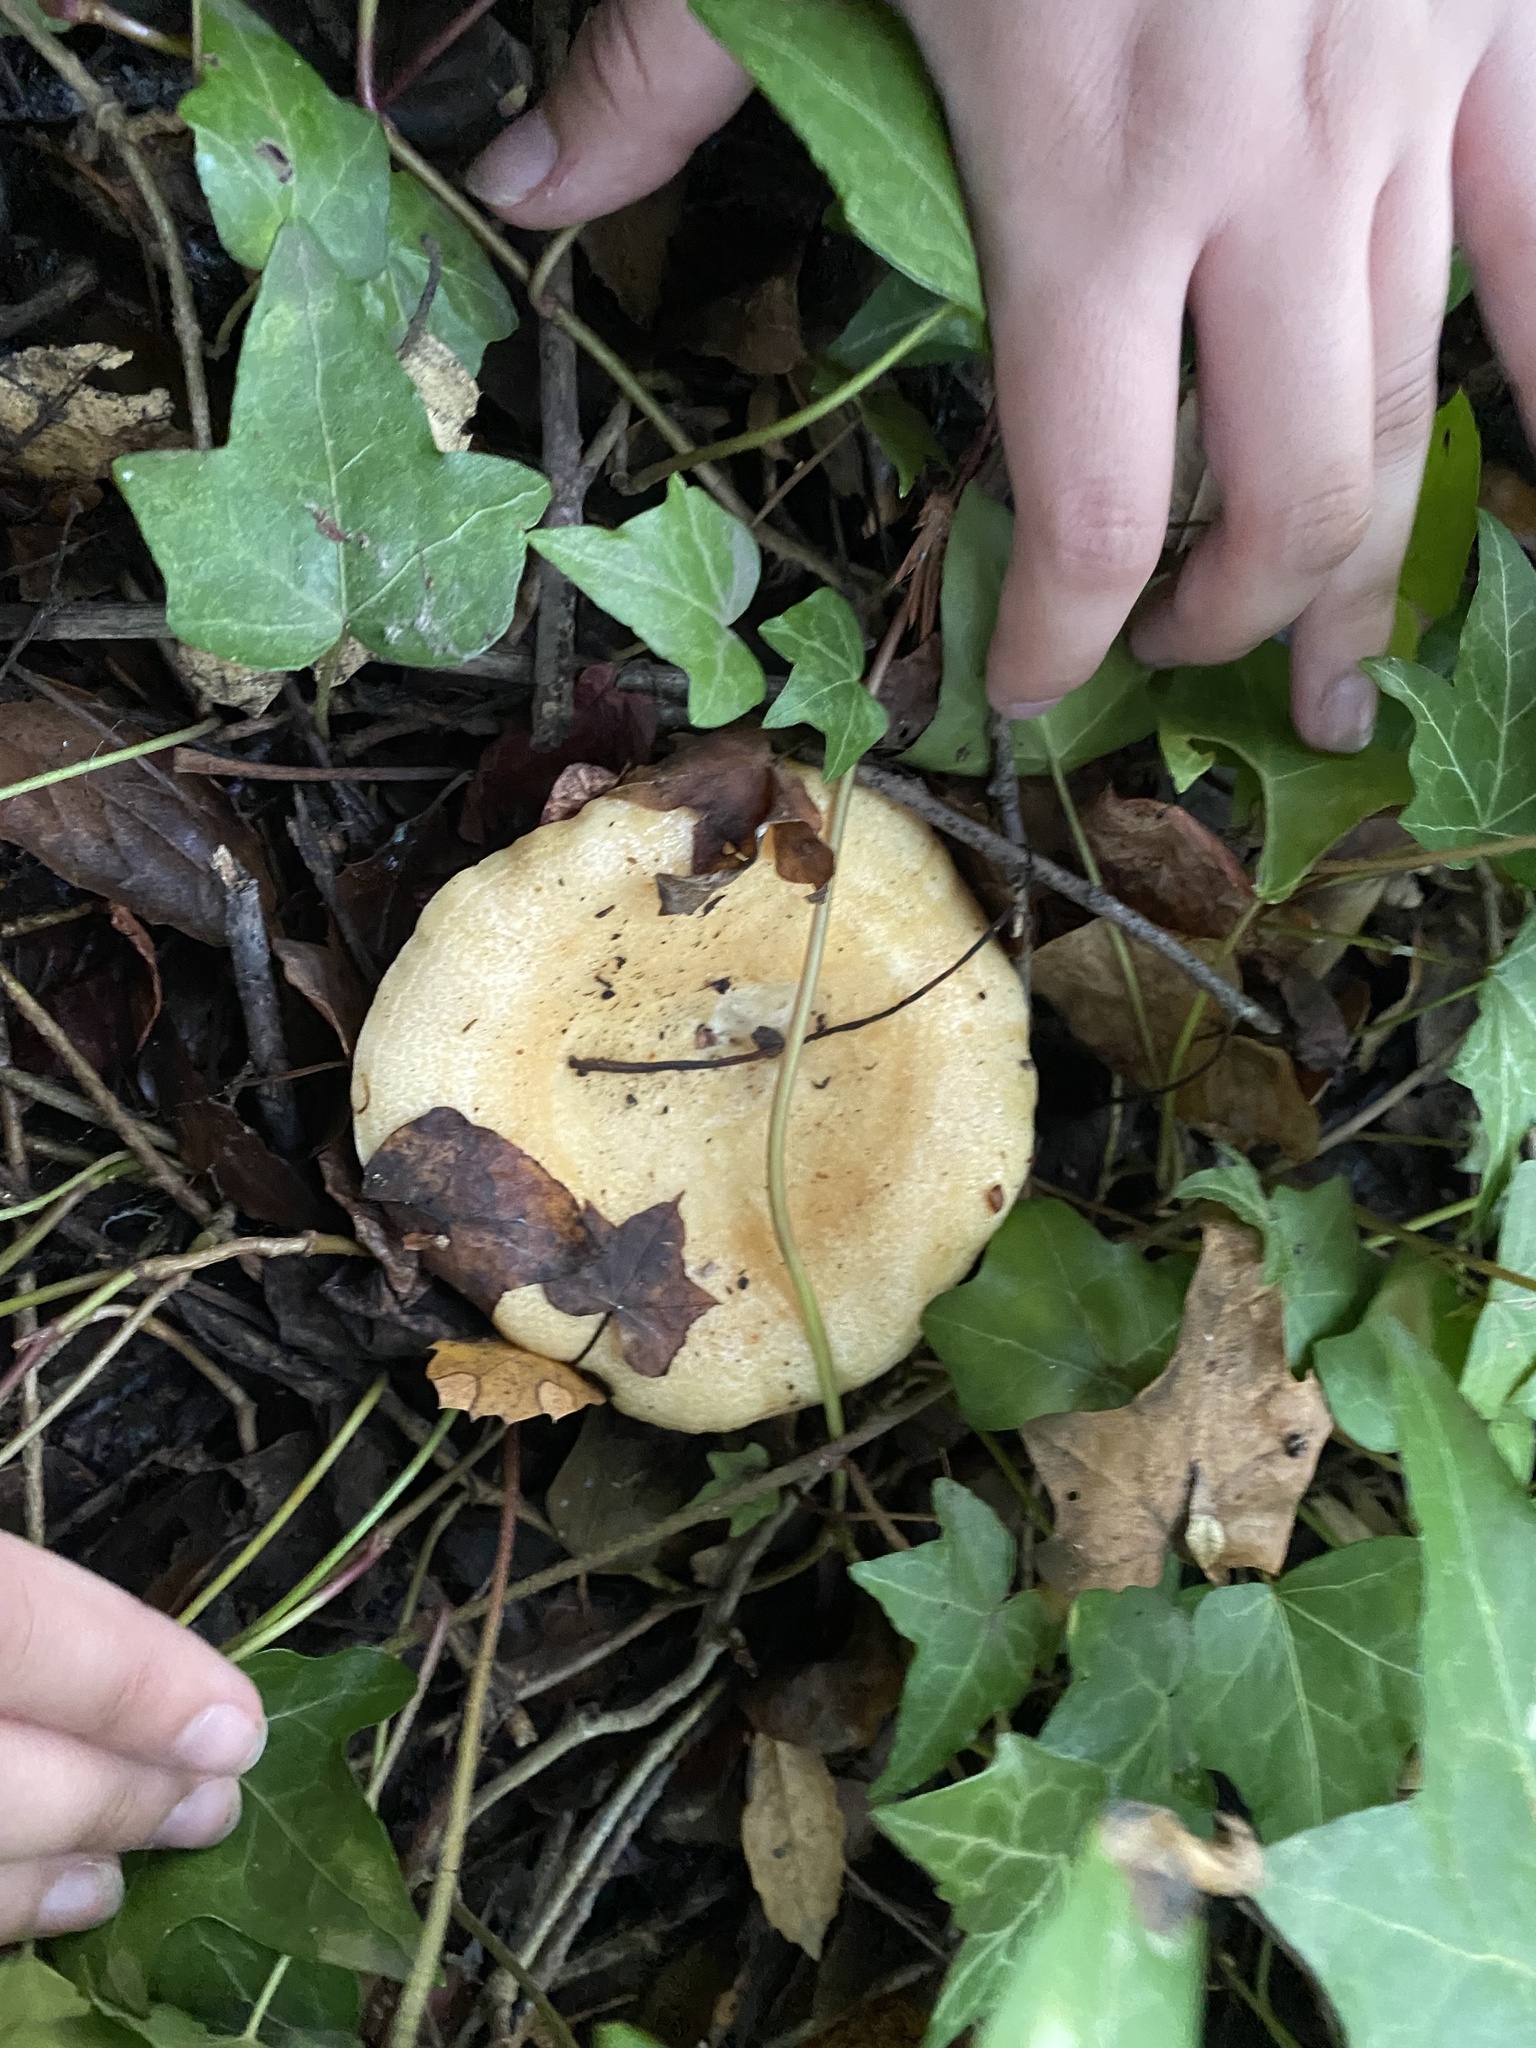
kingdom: Fungi
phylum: Basidiomycota
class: Agaricomycetes
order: Russulales
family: Russulaceae
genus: Lactarius
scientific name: Lactarius alnicola
